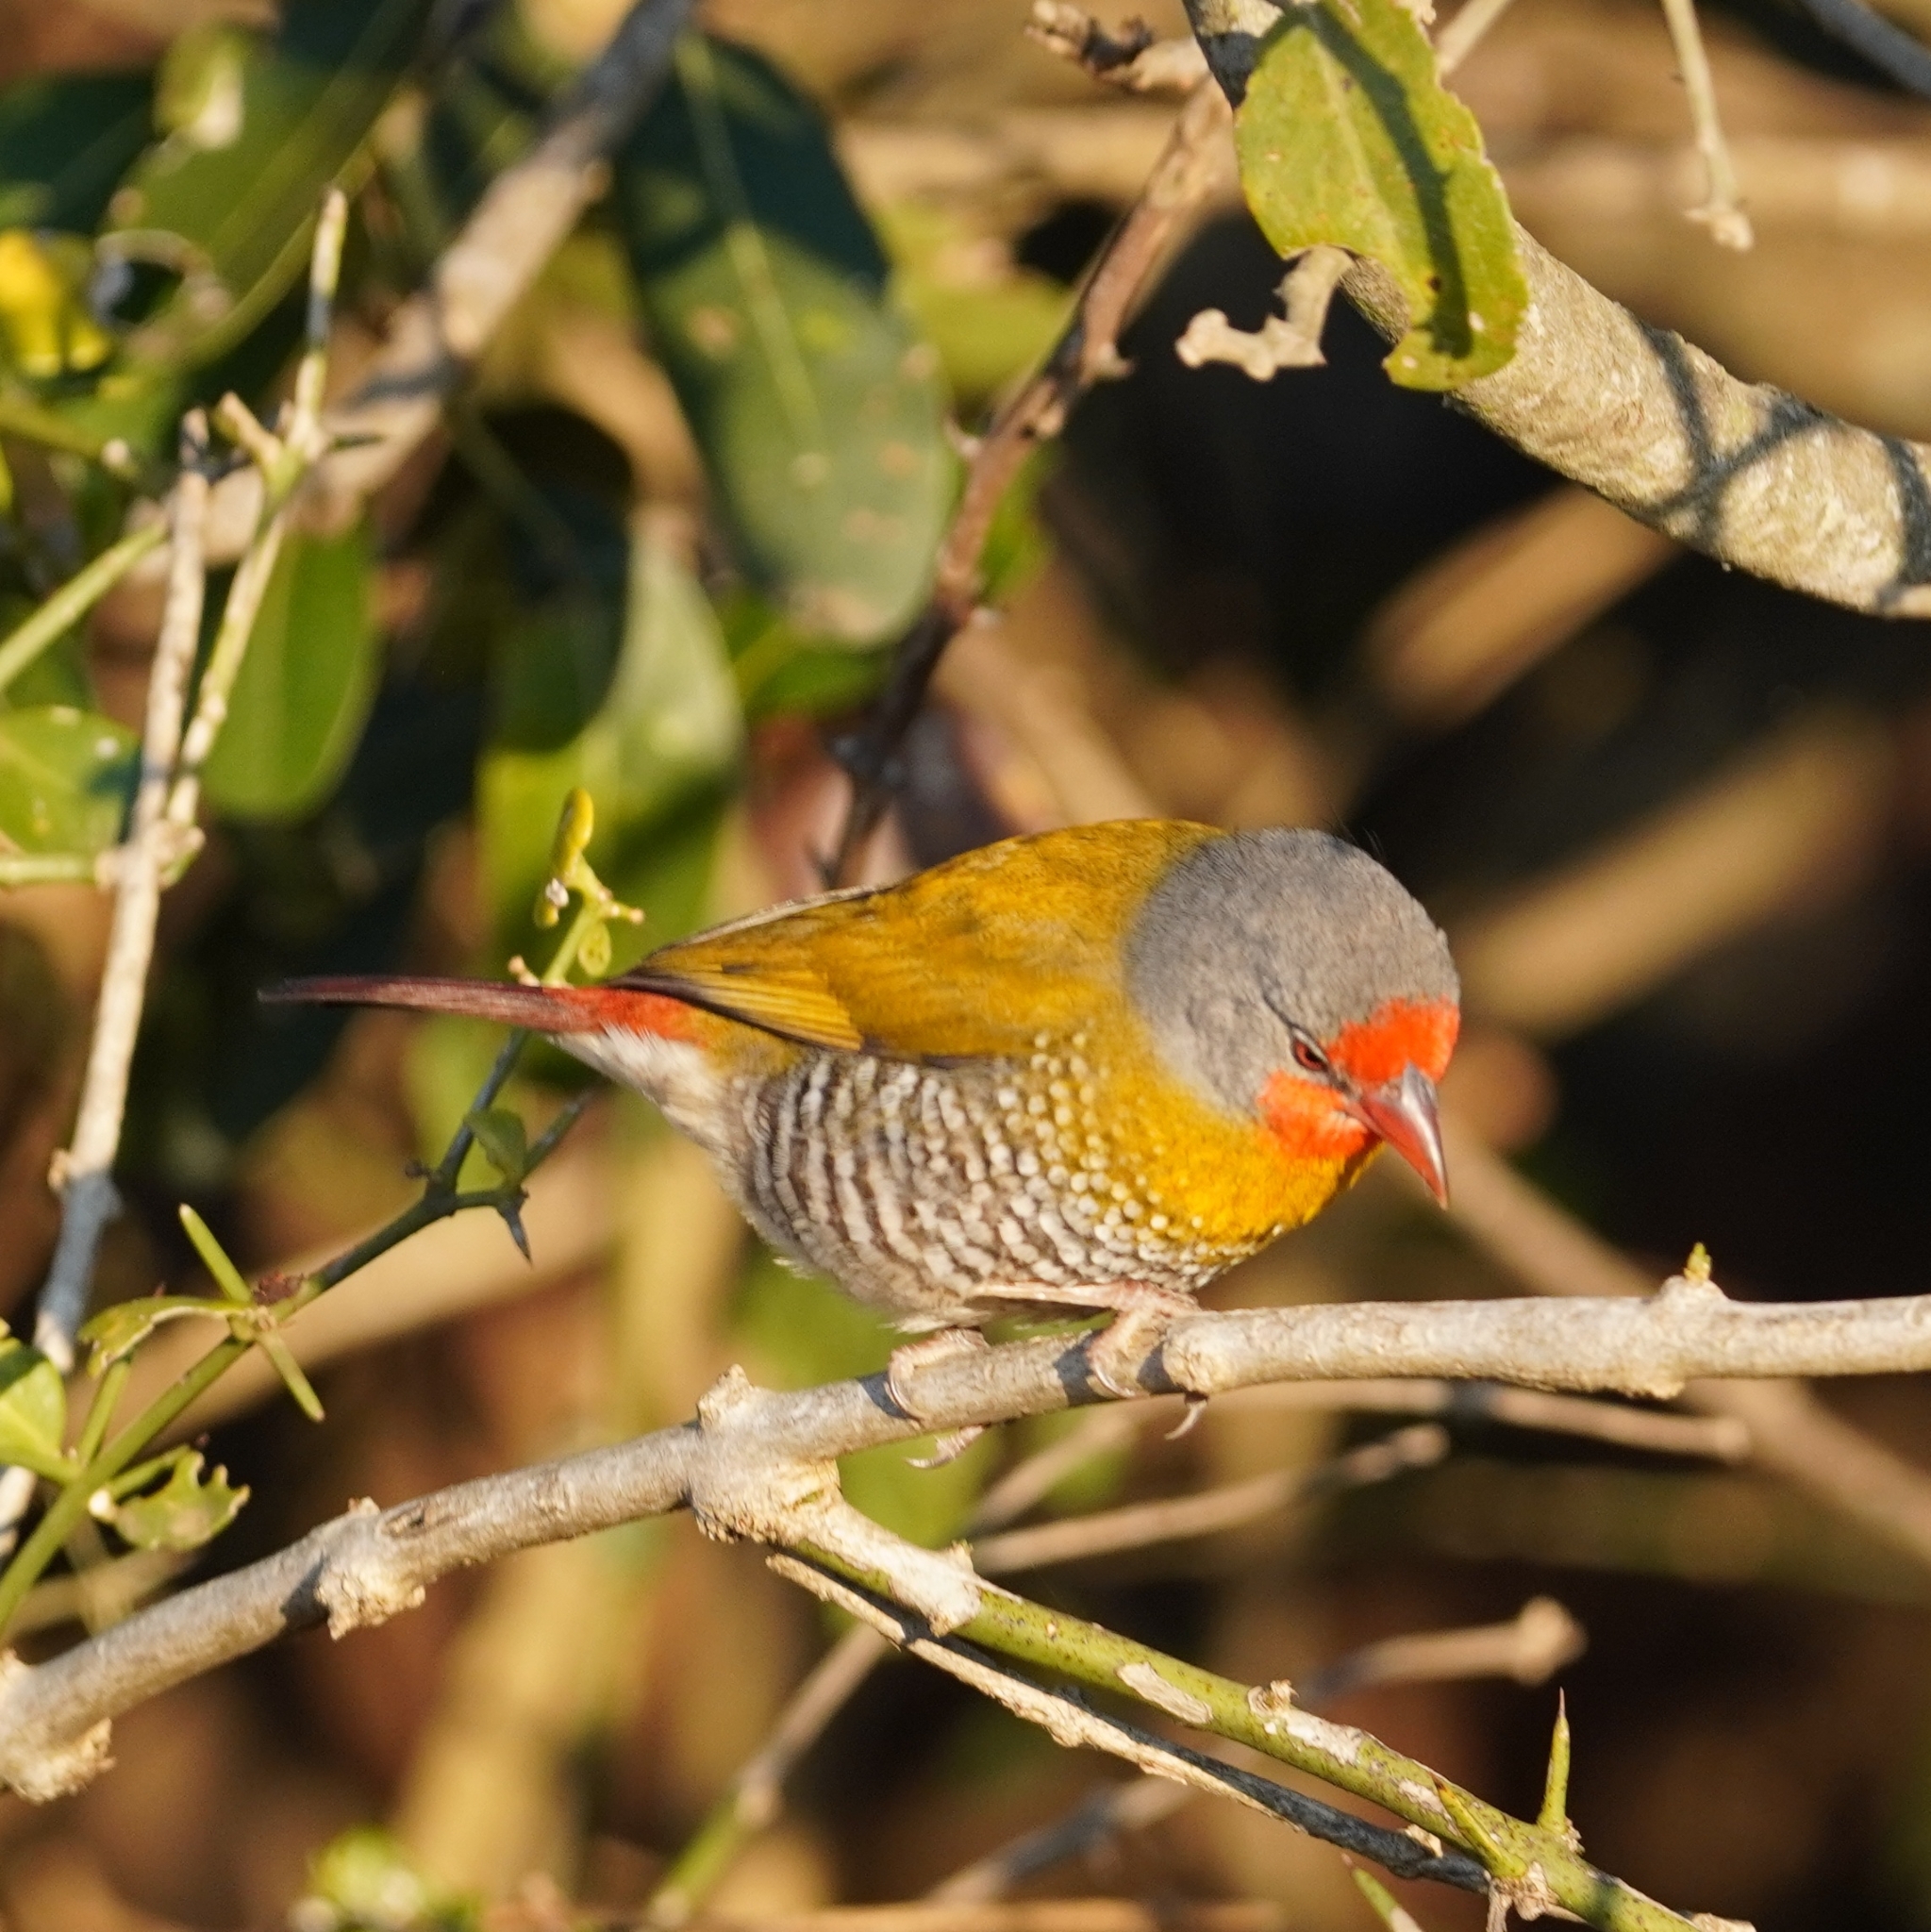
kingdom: Animalia
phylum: Chordata
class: Aves
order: Passeriformes
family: Estrildidae
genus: Pytilia
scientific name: Pytilia melba
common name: Green-winged pytilia
